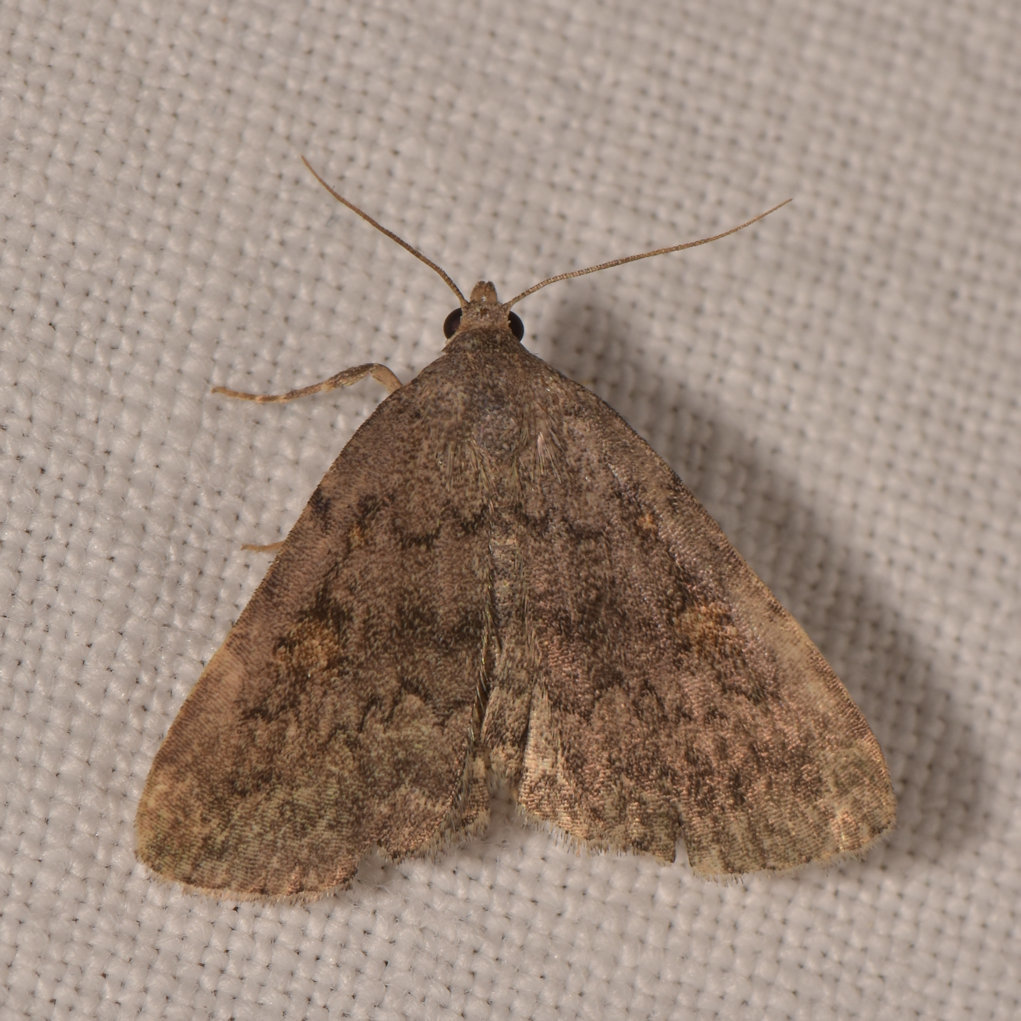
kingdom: Animalia
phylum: Arthropoda
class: Insecta
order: Lepidoptera
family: Erebidae
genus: Idia
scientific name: Idia aemula
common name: Common idia moth
